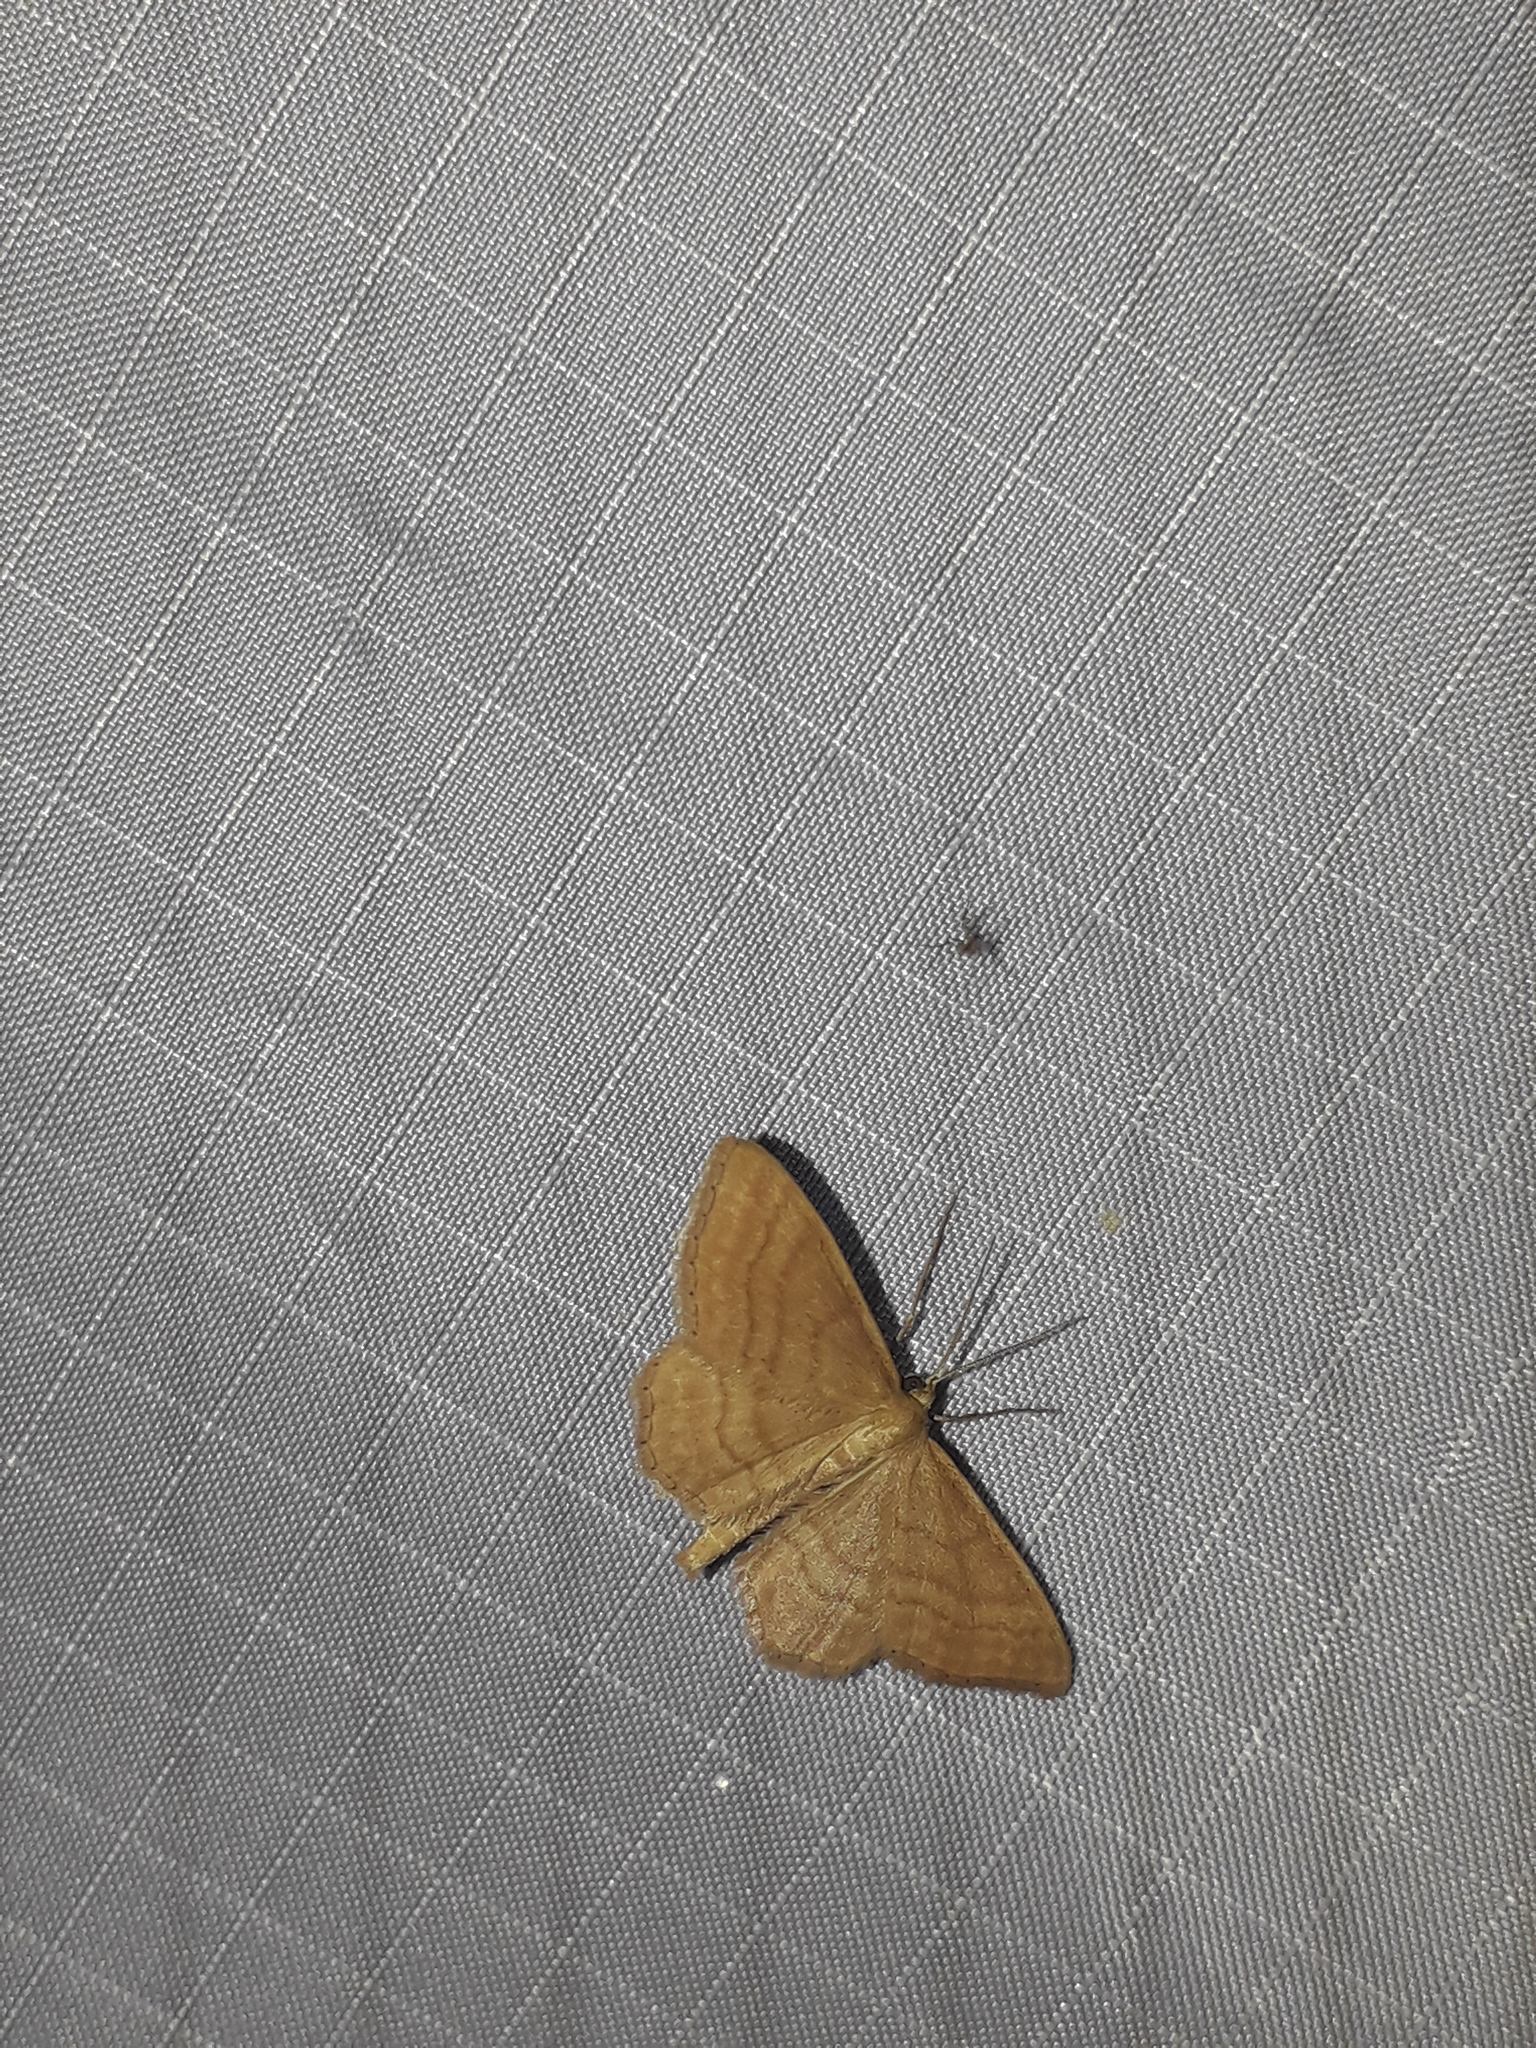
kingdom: Animalia
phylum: Arthropoda
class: Insecta
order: Lepidoptera
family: Geometridae
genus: Idaea
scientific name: Idaea ochrata
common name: Bright wave
